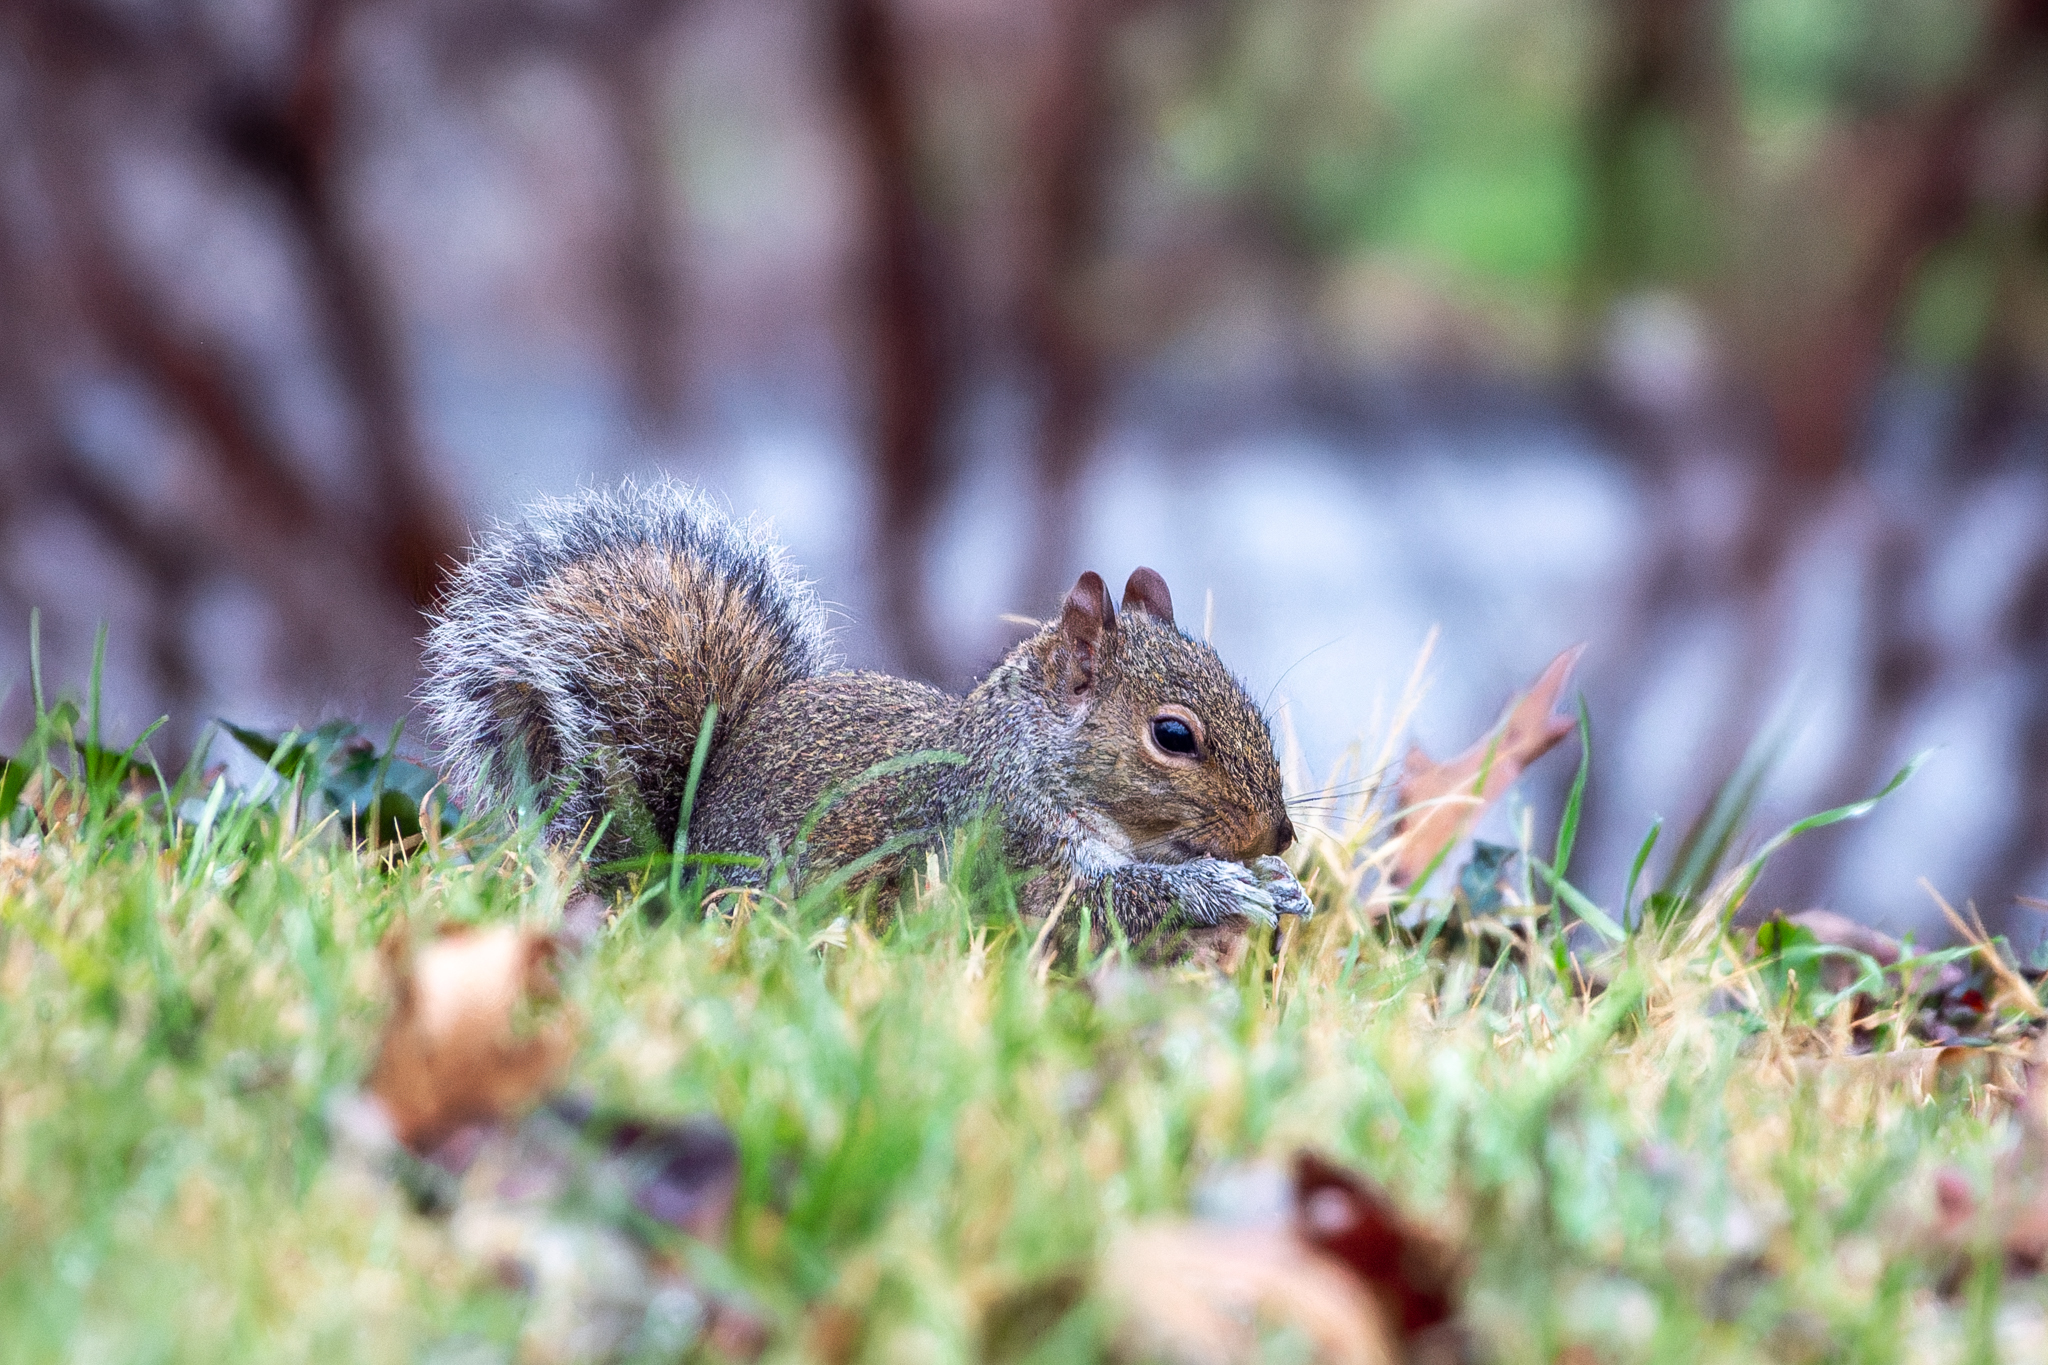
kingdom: Animalia
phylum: Chordata
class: Mammalia
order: Rodentia
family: Sciuridae
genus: Sciurus
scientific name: Sciurus carolinensis
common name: Eastern gray squirrel
